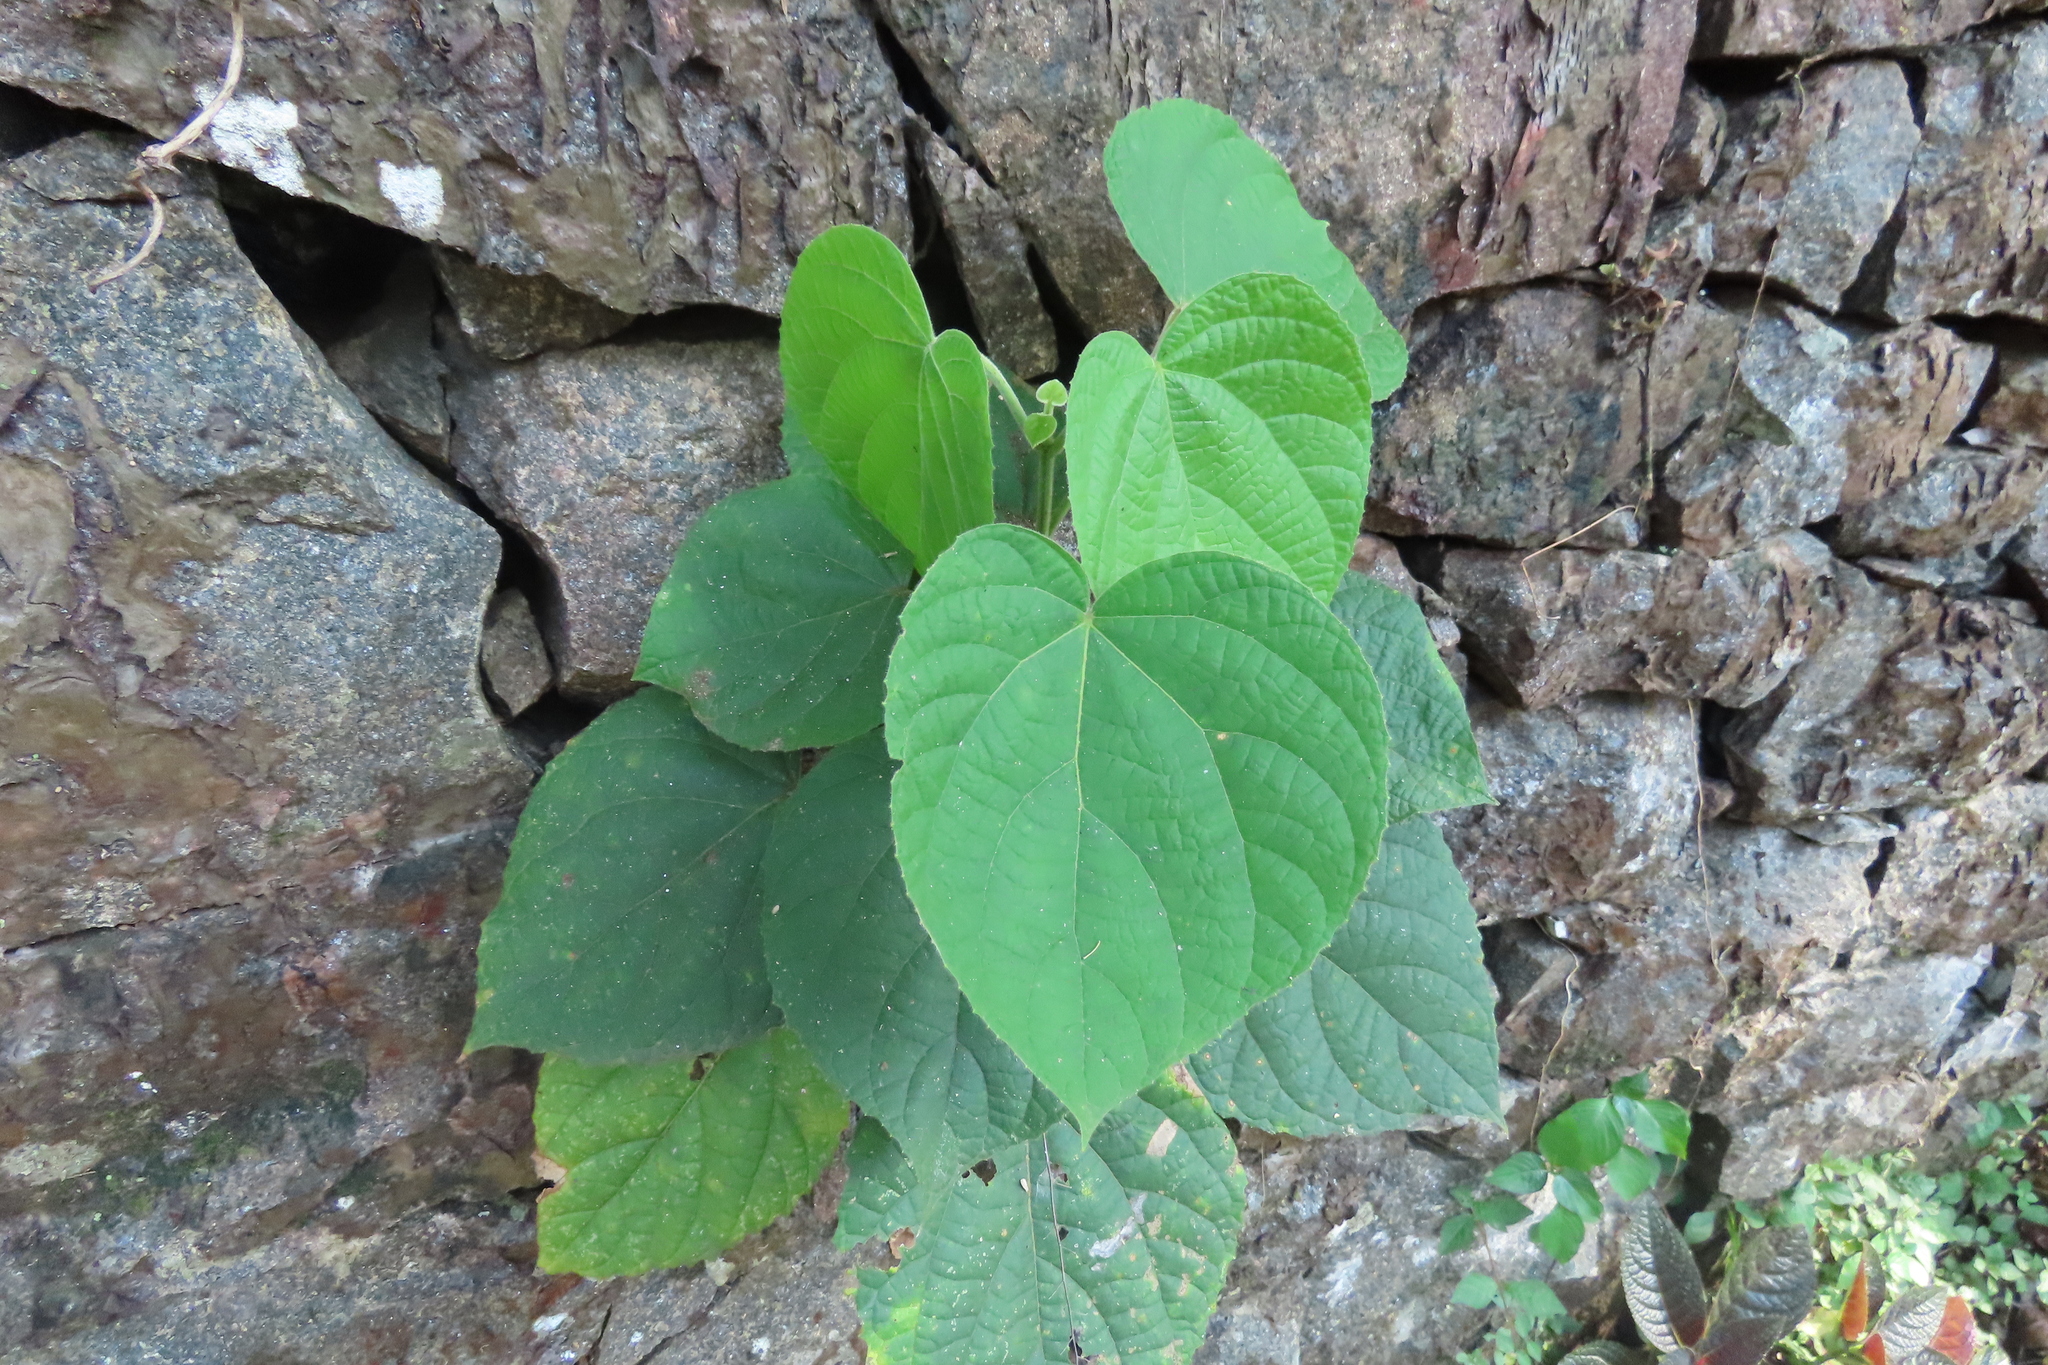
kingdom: Plantae
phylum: Tracheophyta
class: Magnoliopsida
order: Lamiales
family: Lamiaceae
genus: Clerodendrum
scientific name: Clerodendrum infortunatum
